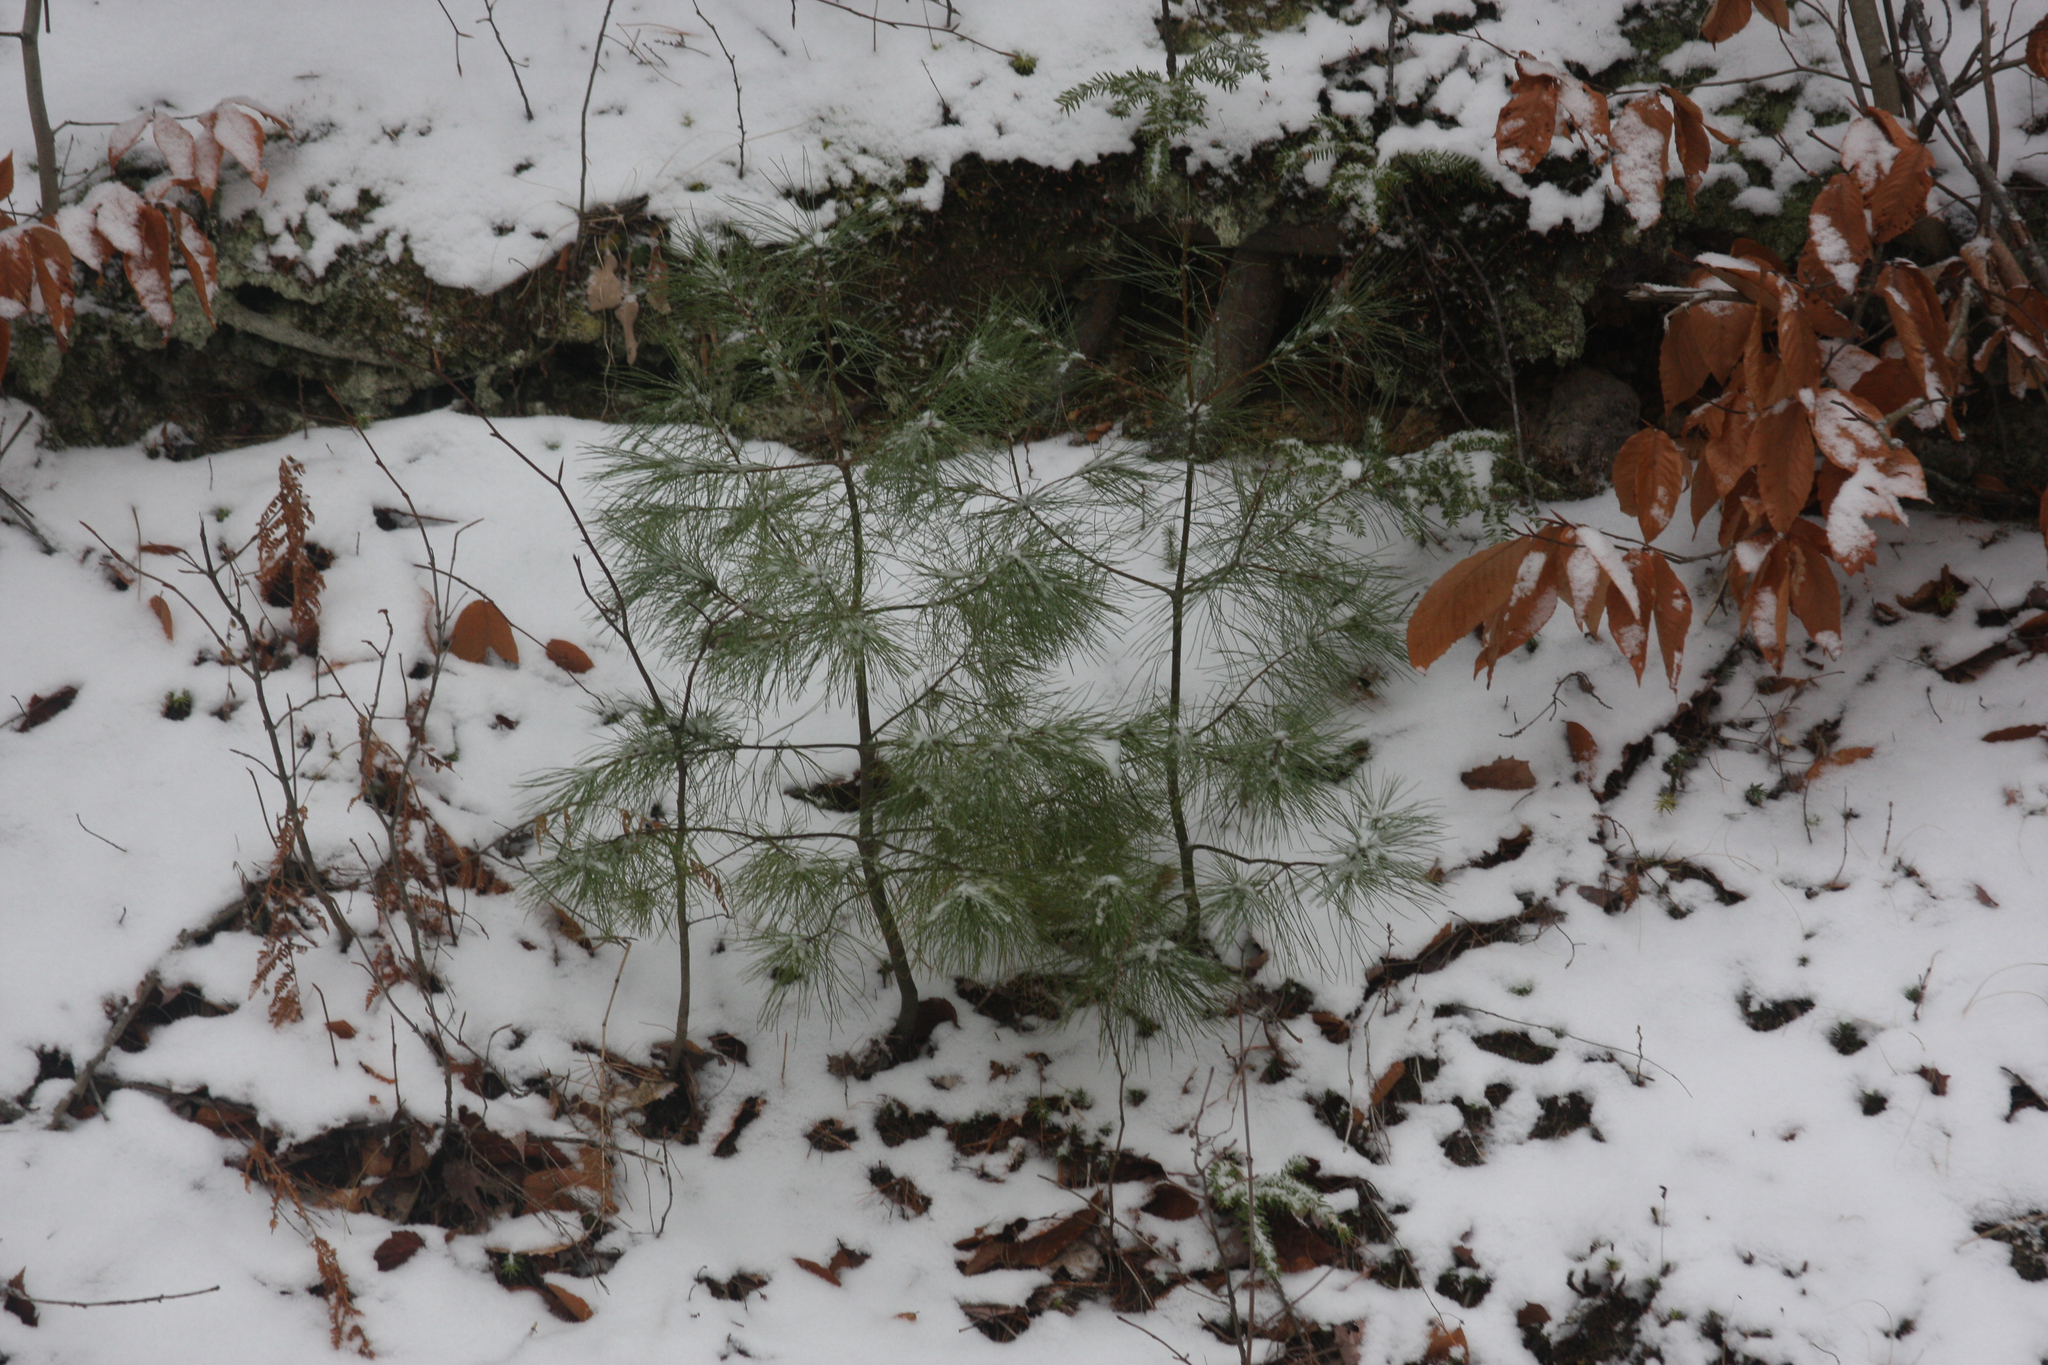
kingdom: Plantae
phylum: Tracheophyta
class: Pinopsida
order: Pinales
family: Pinaceae
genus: Pinus
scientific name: Pinus strobus
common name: Weymouth pine
